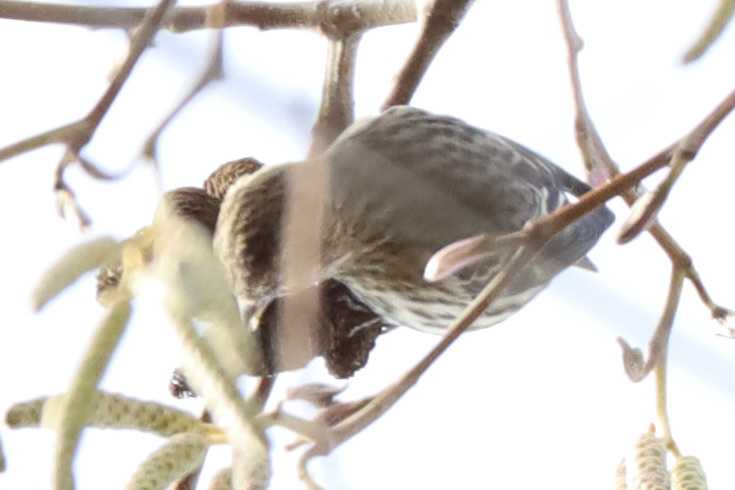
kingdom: Animalia
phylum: Chordata
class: Aves
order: Passeriformes
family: Fringillidae
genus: Spinus
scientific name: Spinus pinus
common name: Pine siskin
